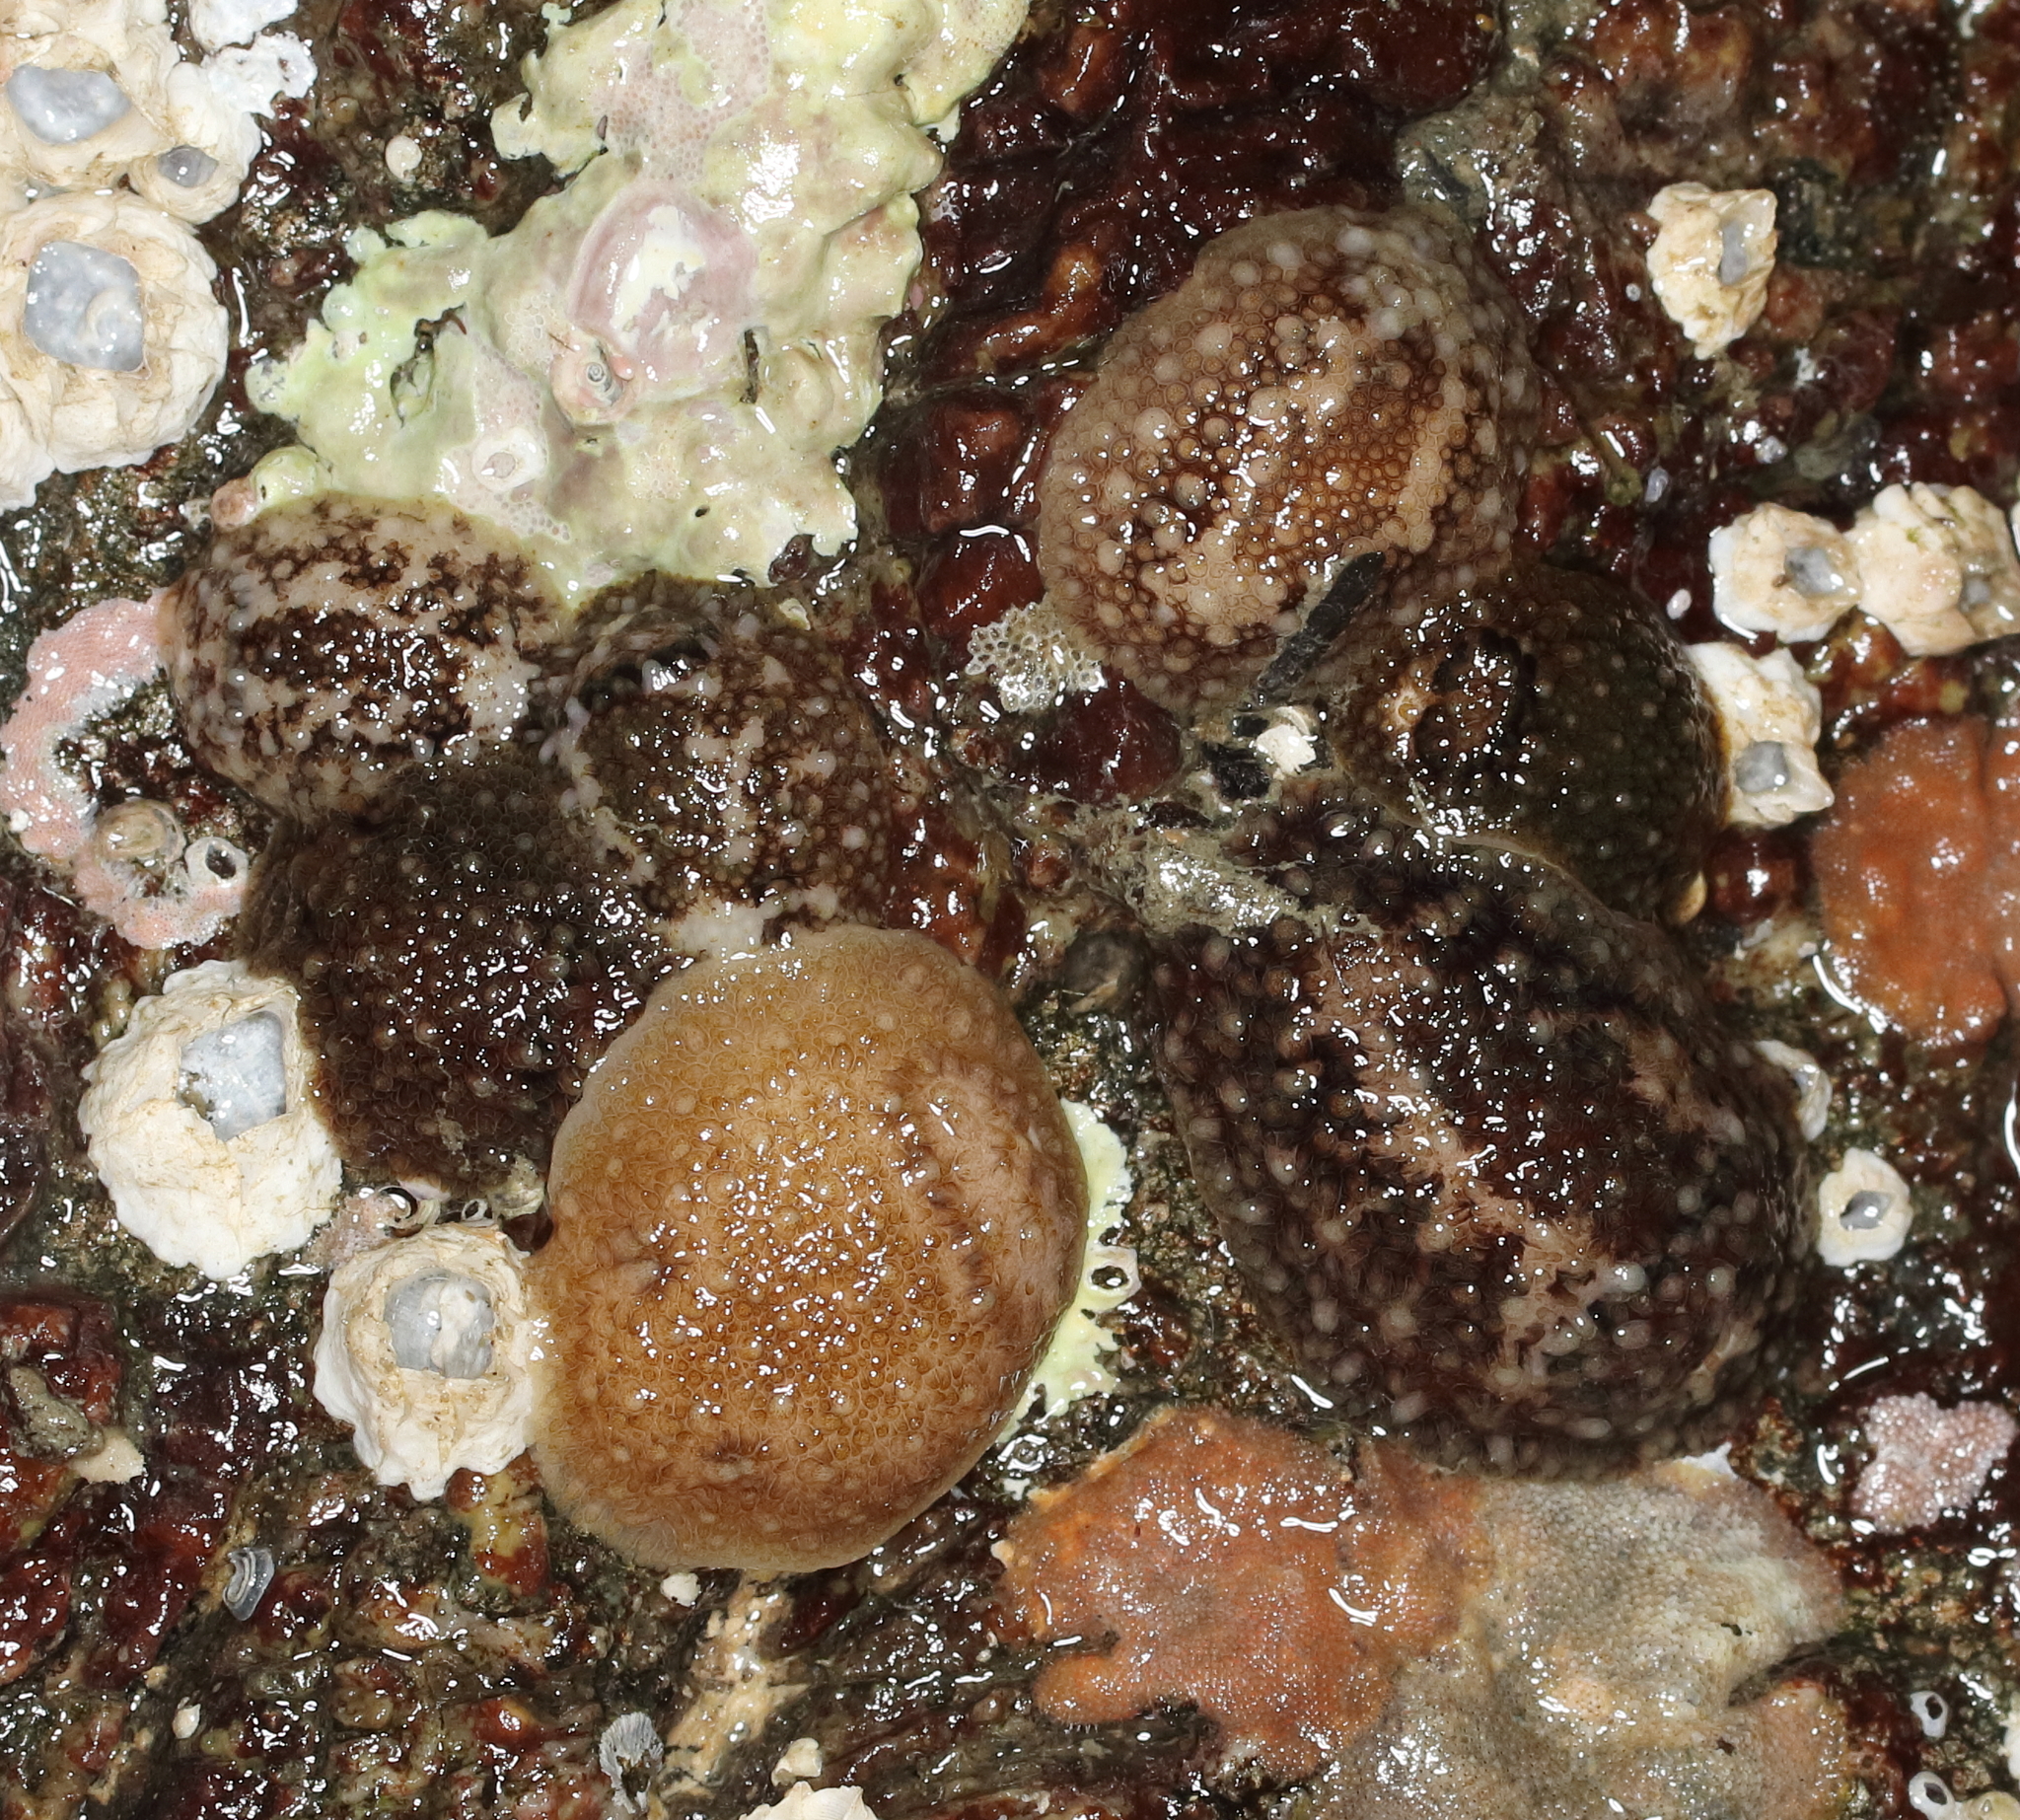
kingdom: Animalia
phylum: Mollusca
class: Gastropoda
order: Nudibranchia
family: Onchidorididae
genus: Onchidoris
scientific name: Onchidoris bilamellata
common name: Barnacle-eating onchidoris
